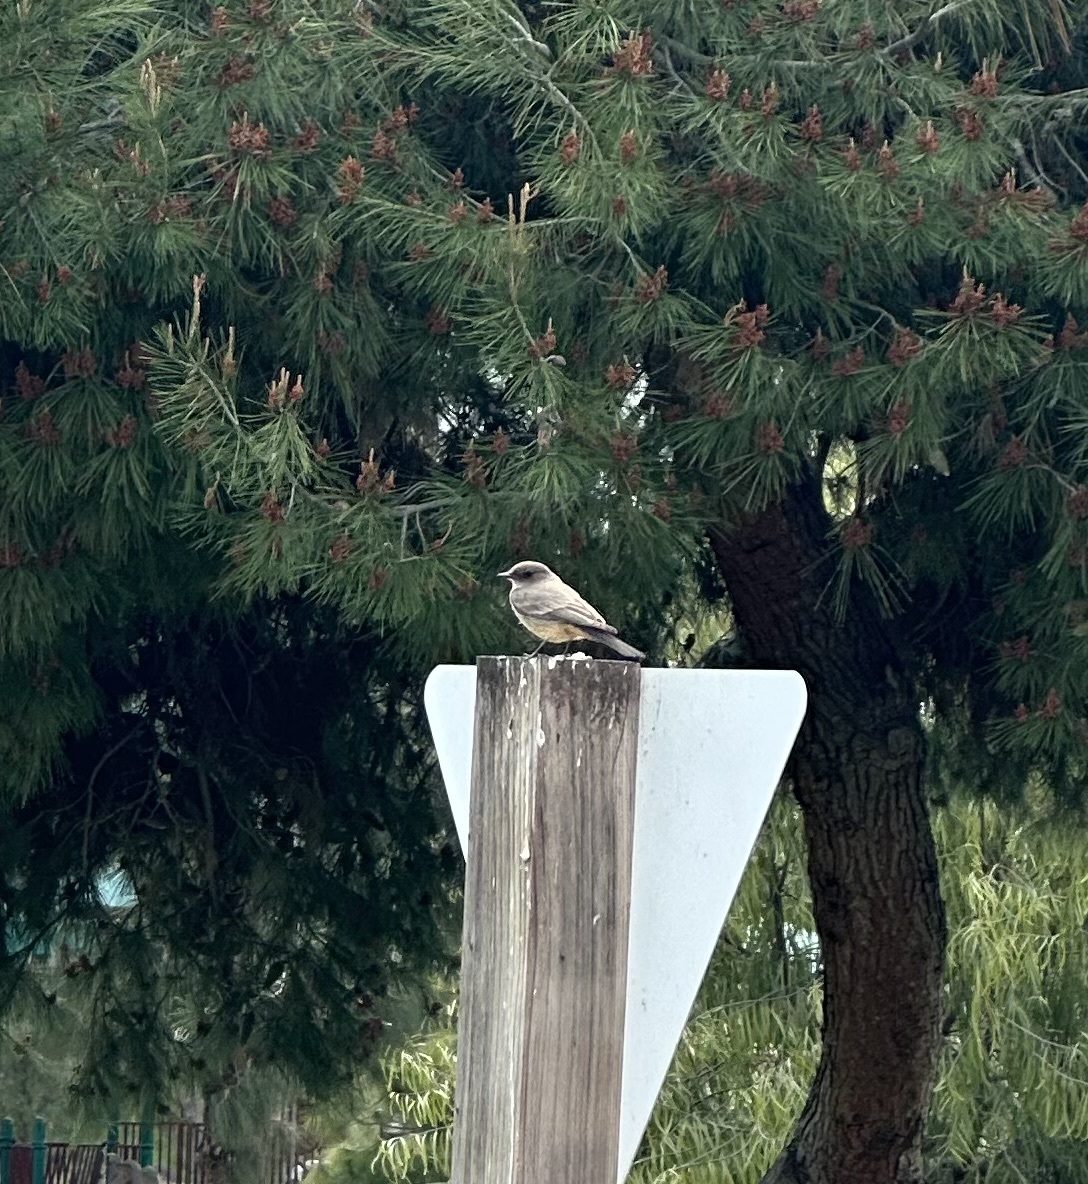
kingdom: Animalia
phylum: Chordata
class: Aves
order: Passeriformes
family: Tyrannidae
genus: Sayornis
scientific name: Sayornis saya
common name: Say's phoebe
